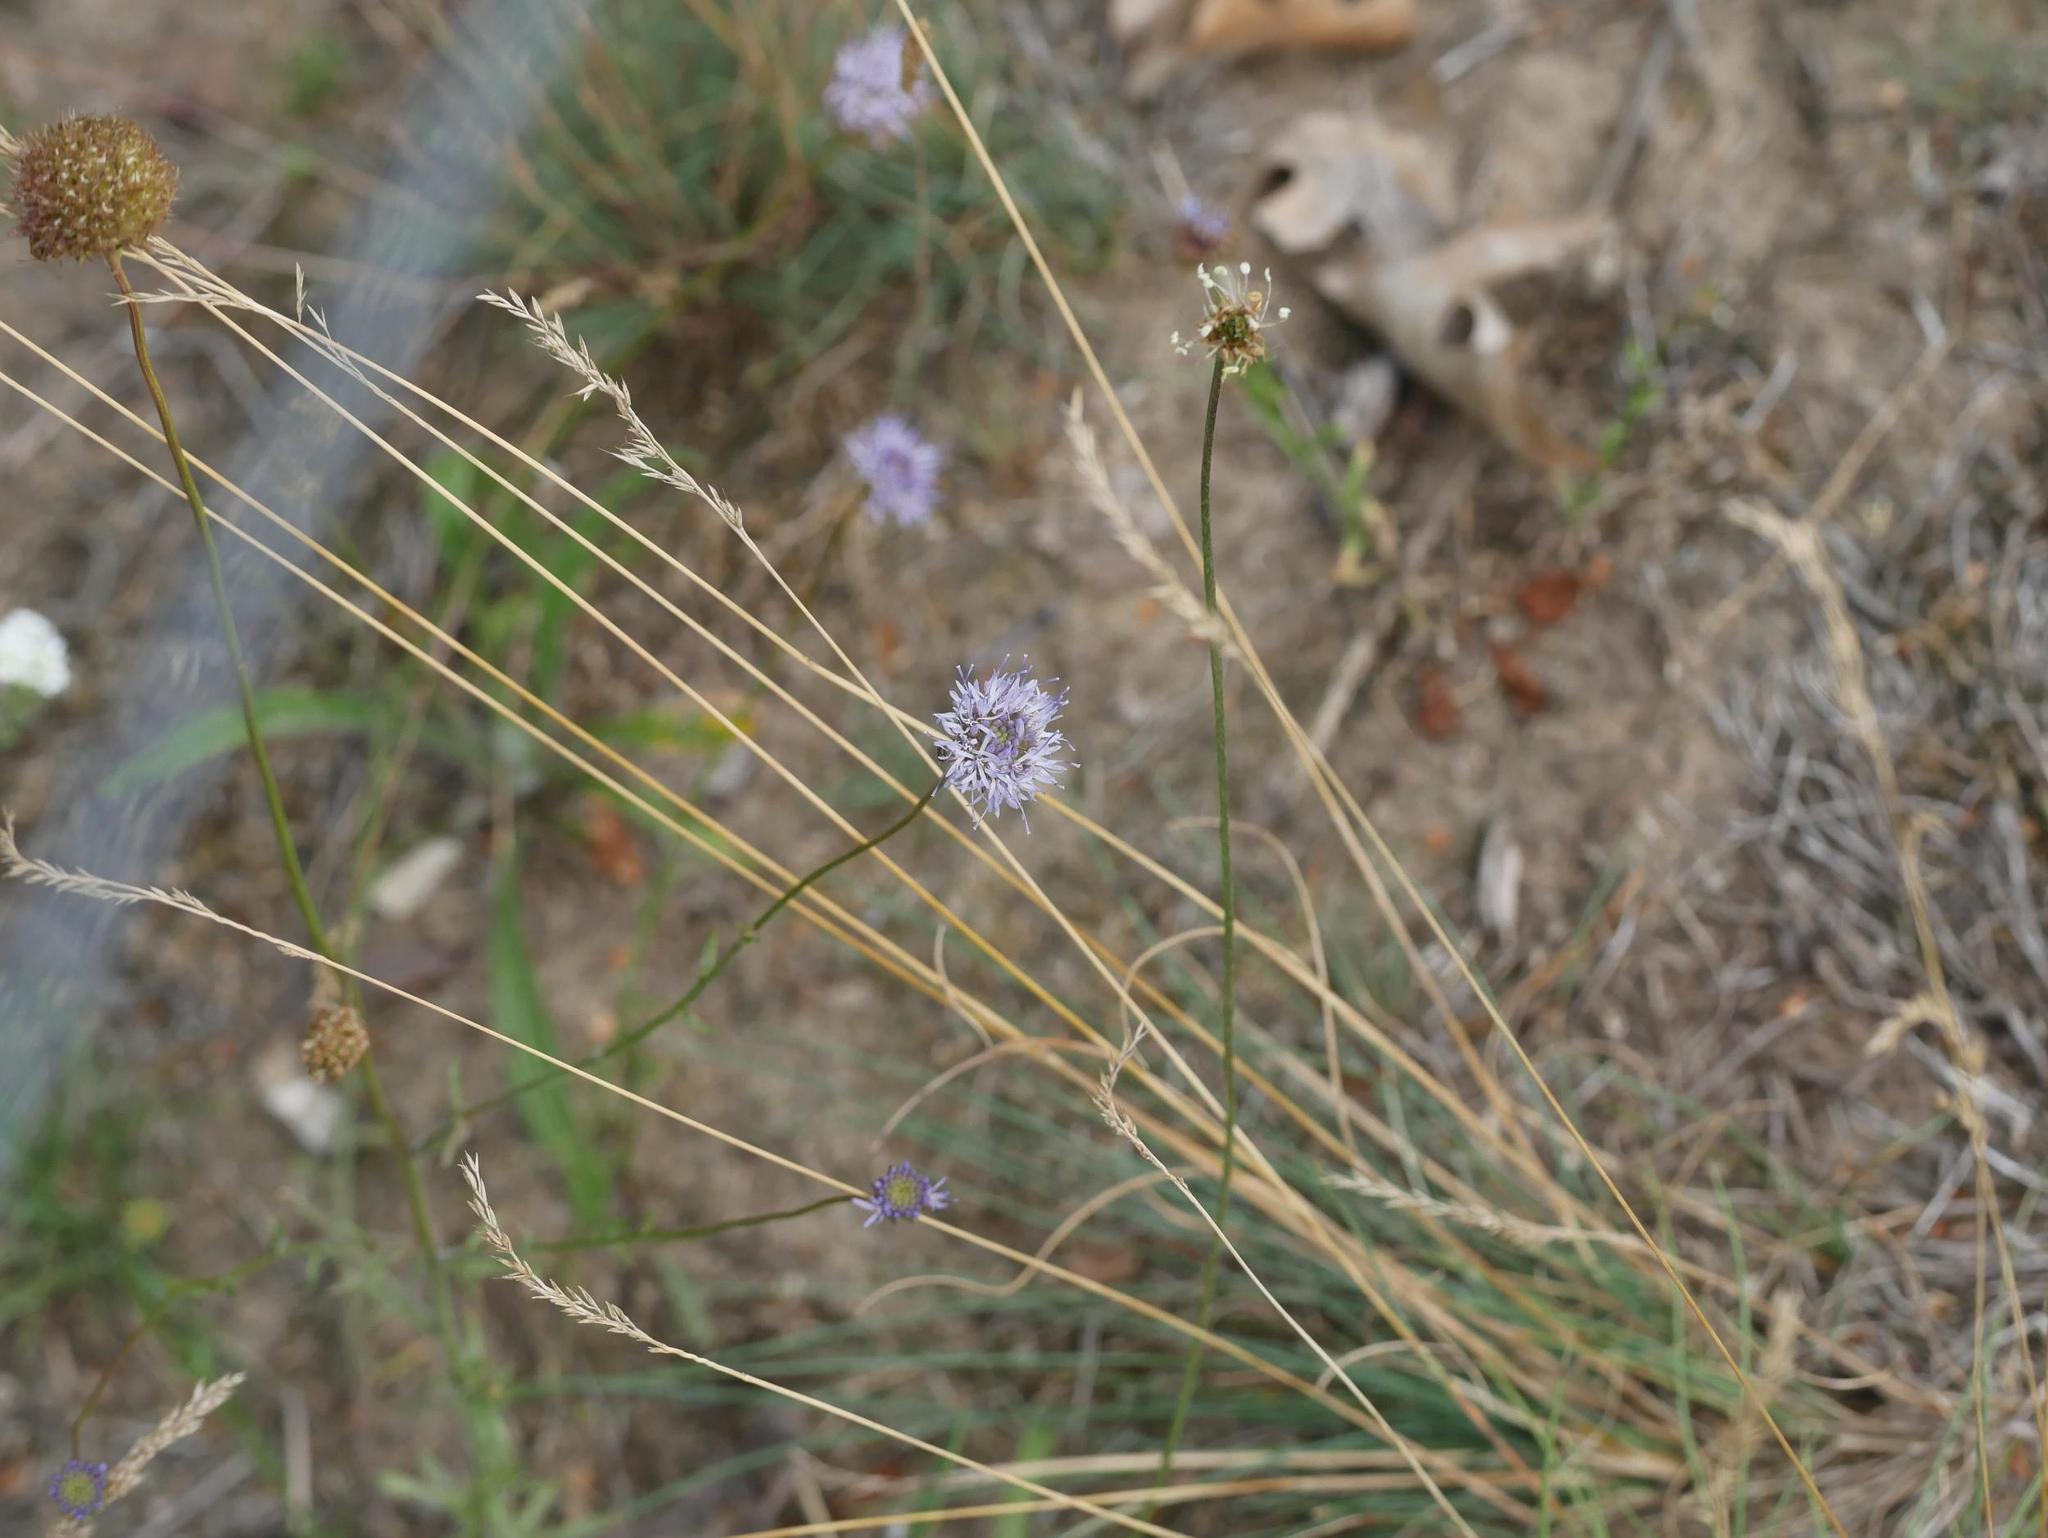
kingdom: Plantae
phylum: Tracheophyta
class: Magnoliopsida
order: Asterales
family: Campanulaceae
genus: Jasione
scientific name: Jasione montana
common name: Sheep's-bit
